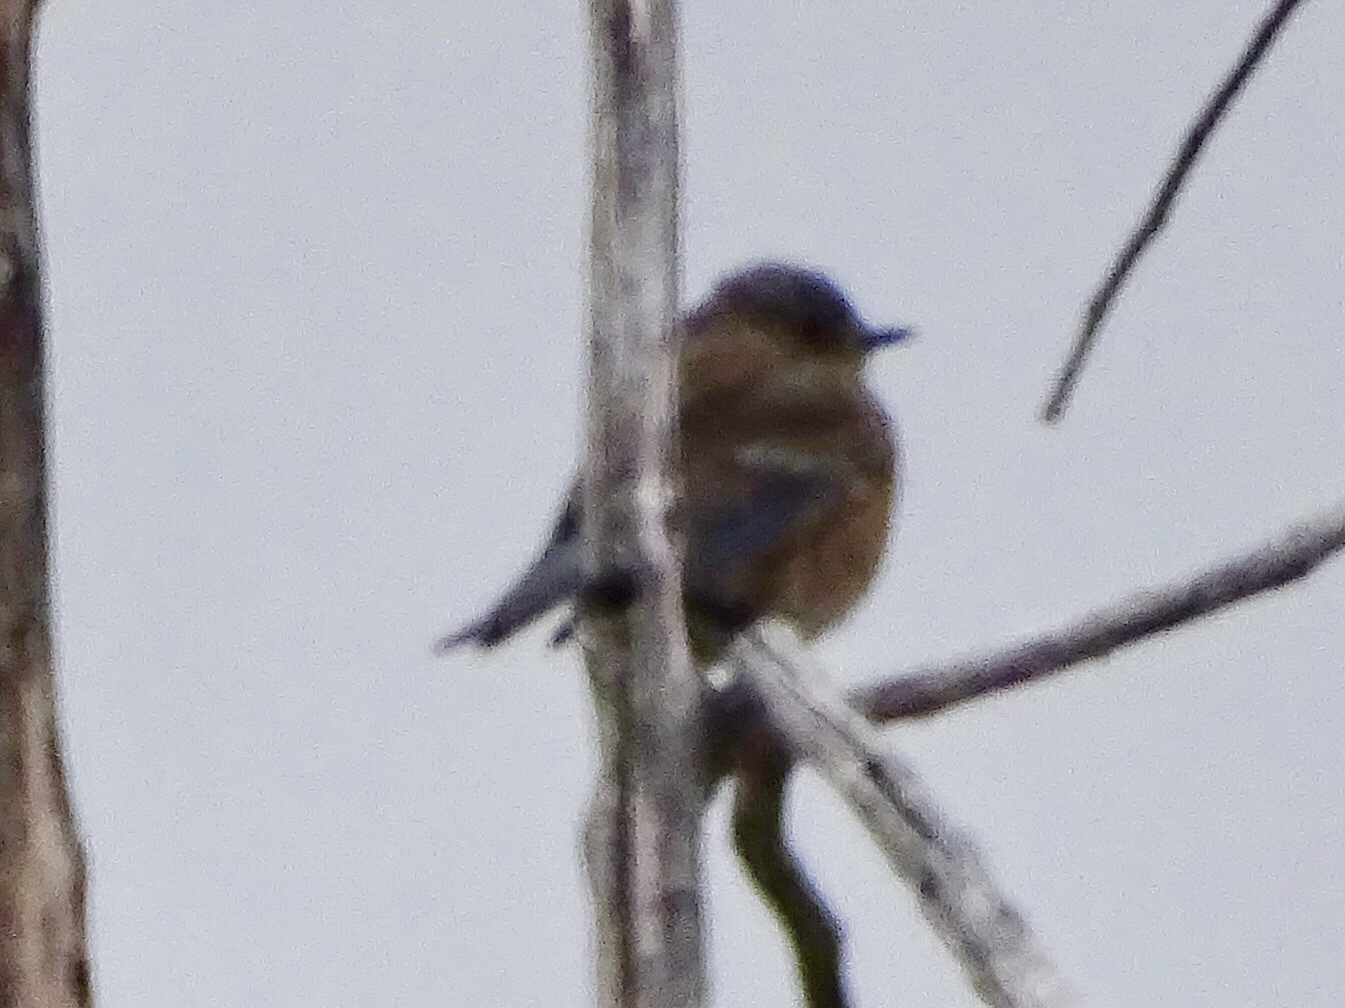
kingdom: Animalia
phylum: Chordata
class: Aves
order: Passeriformes
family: Turdidae
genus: Sialia
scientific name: Sialia mexicana
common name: Western bluebird
